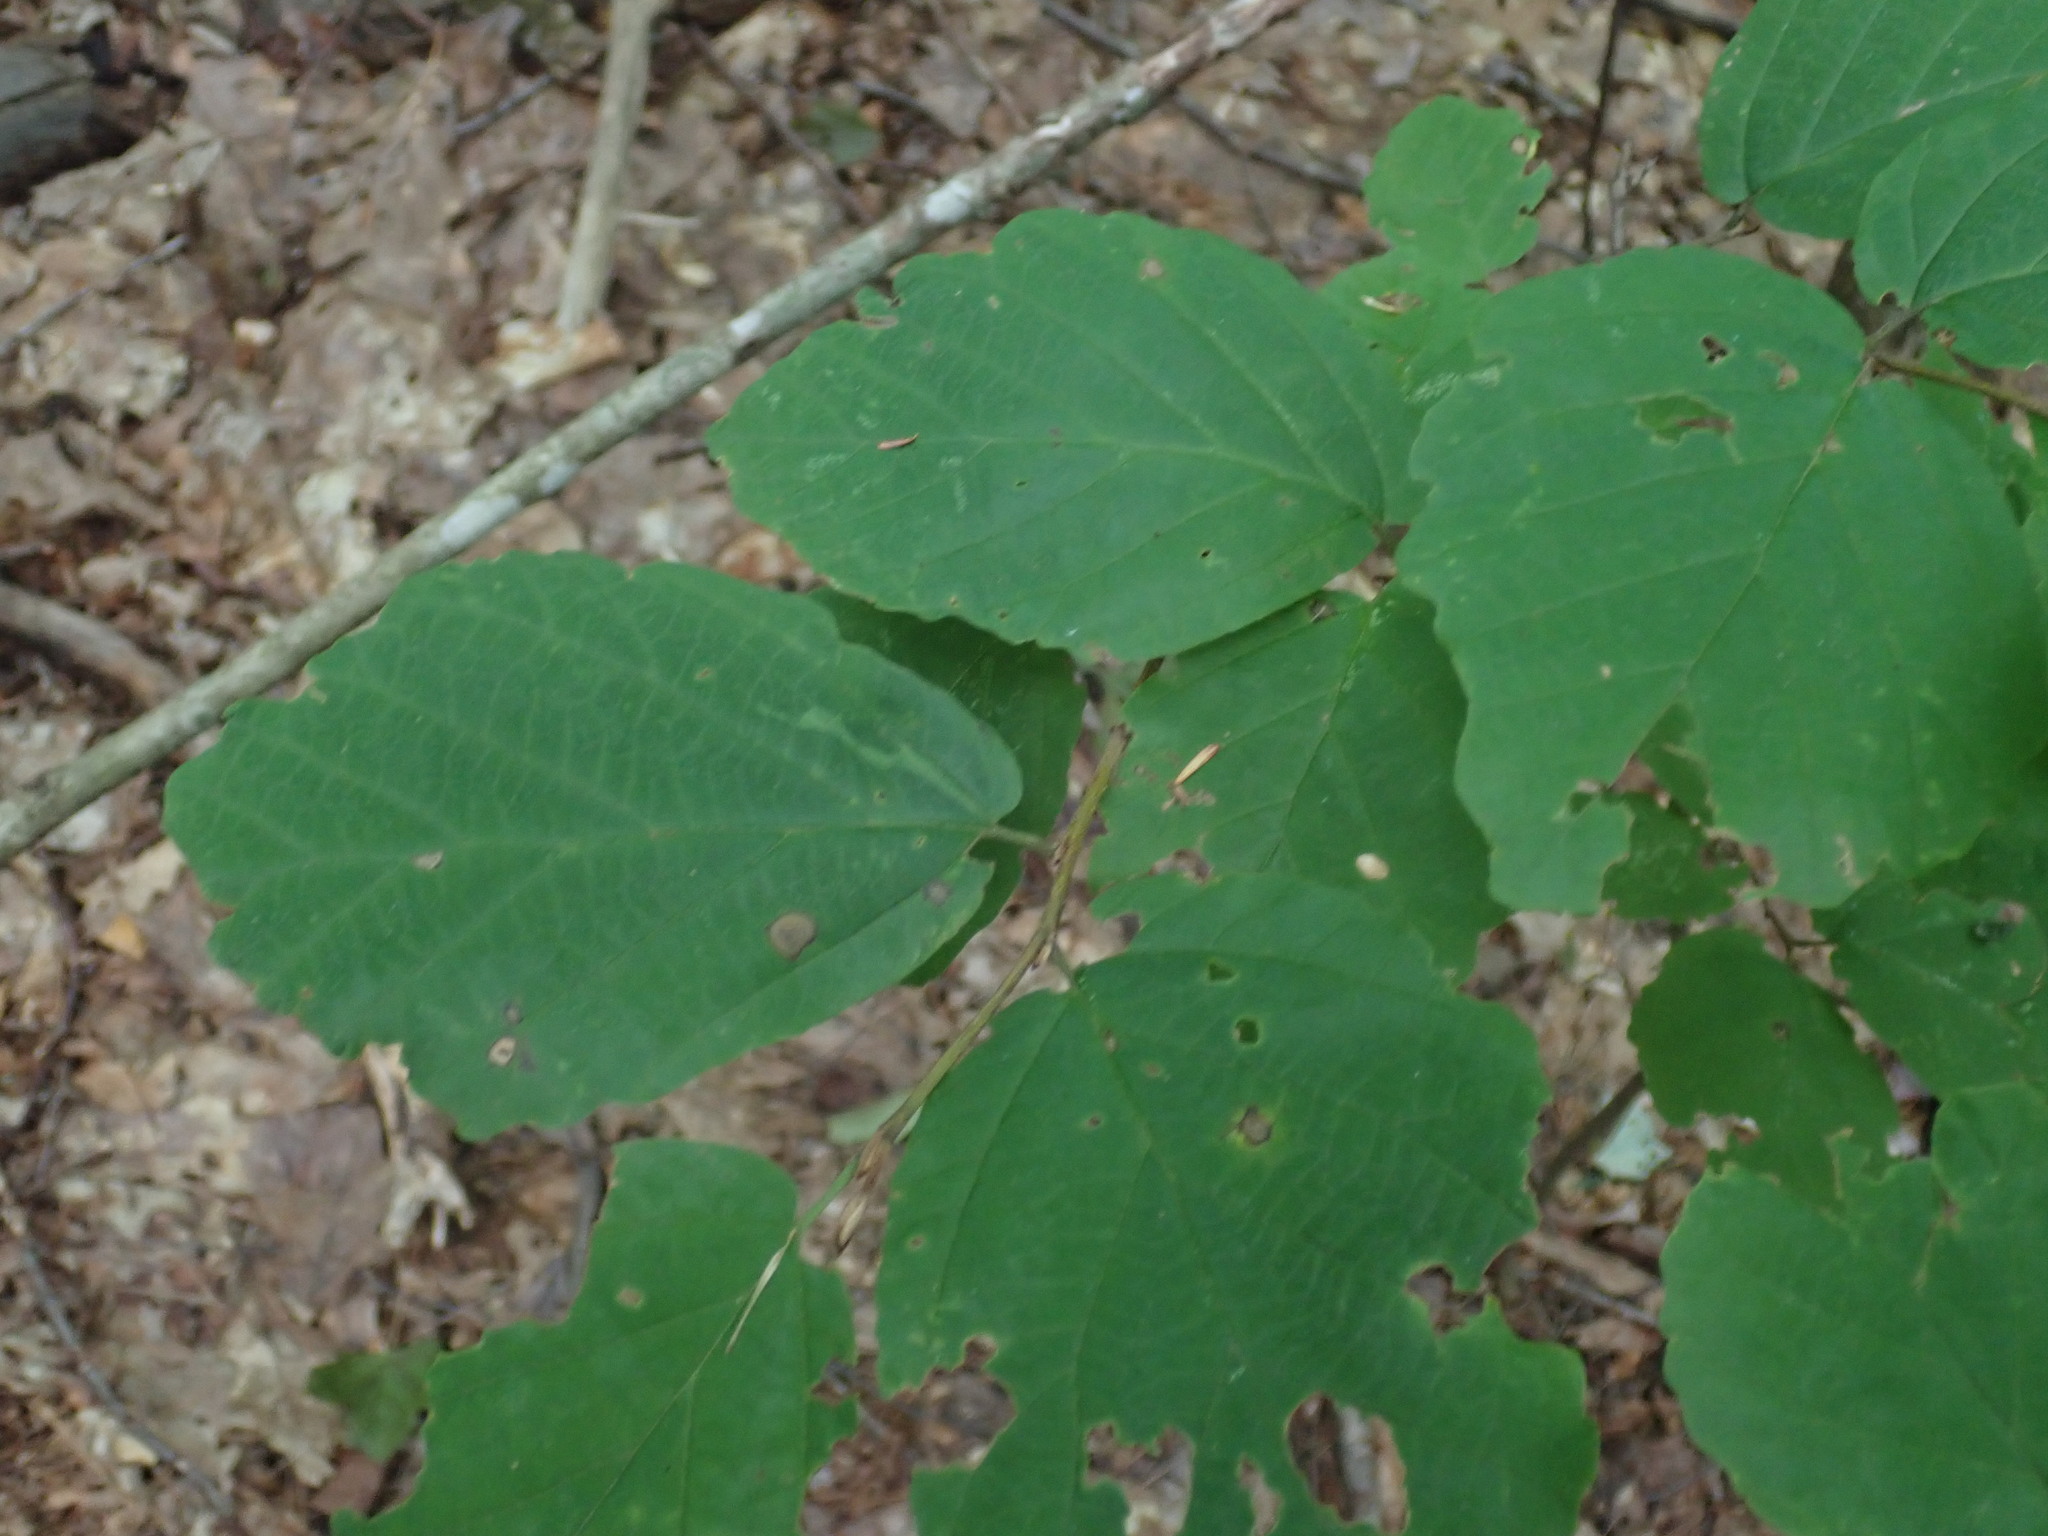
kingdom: Plantae
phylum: Tracheophyta
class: Magnoliopsida
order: Saxifragales
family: Hamamelidaceae
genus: Hamamelis
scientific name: Hamamelis virginiana
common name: Witch-hazel
